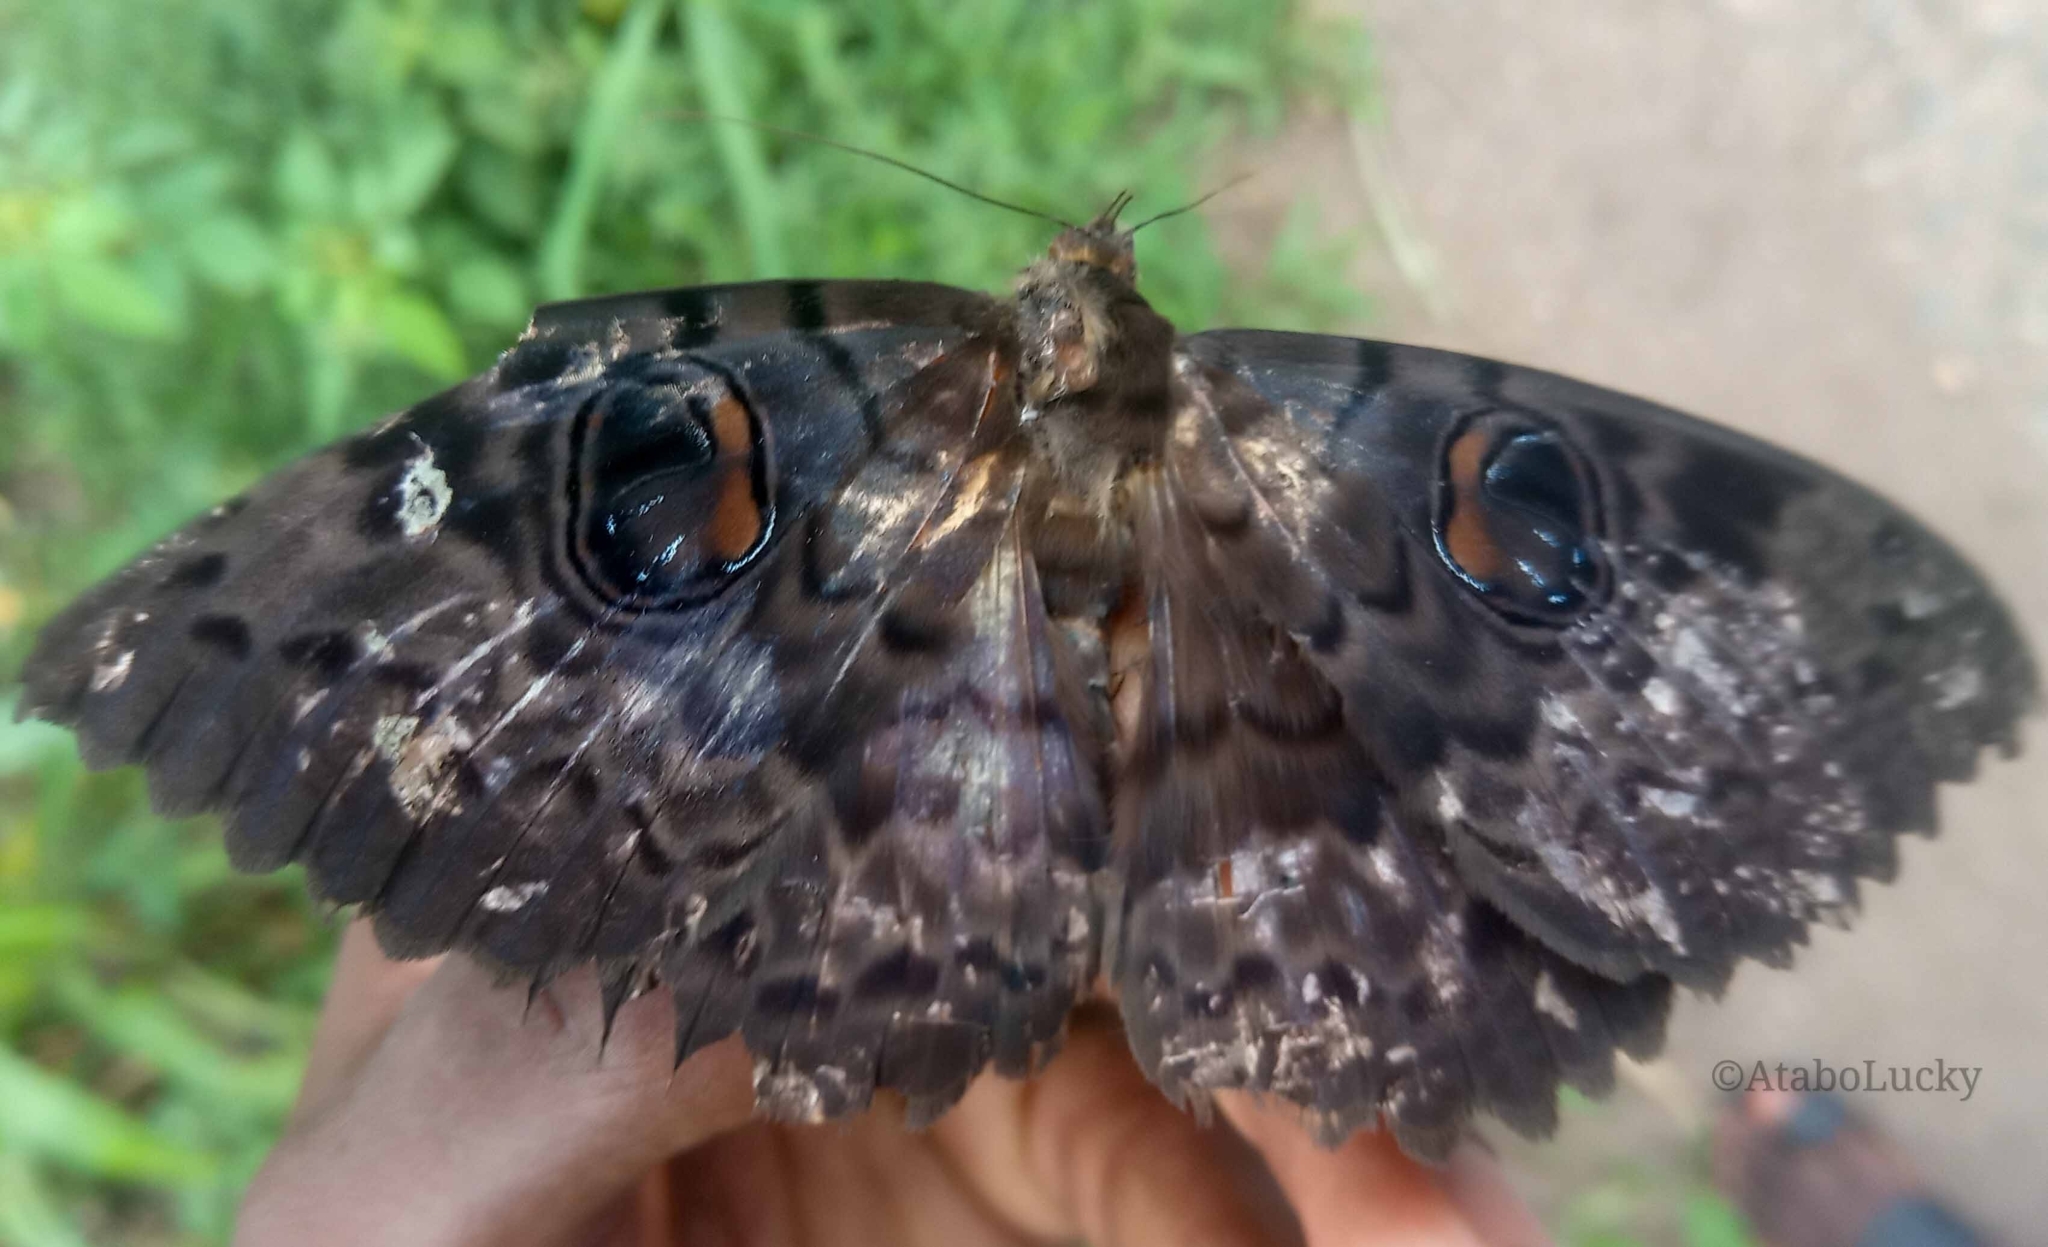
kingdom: Animalia
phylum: Arthropoda
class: Insecta
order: Lepidoptera
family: Erebidae
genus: Erebus
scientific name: Erebus walkeri
